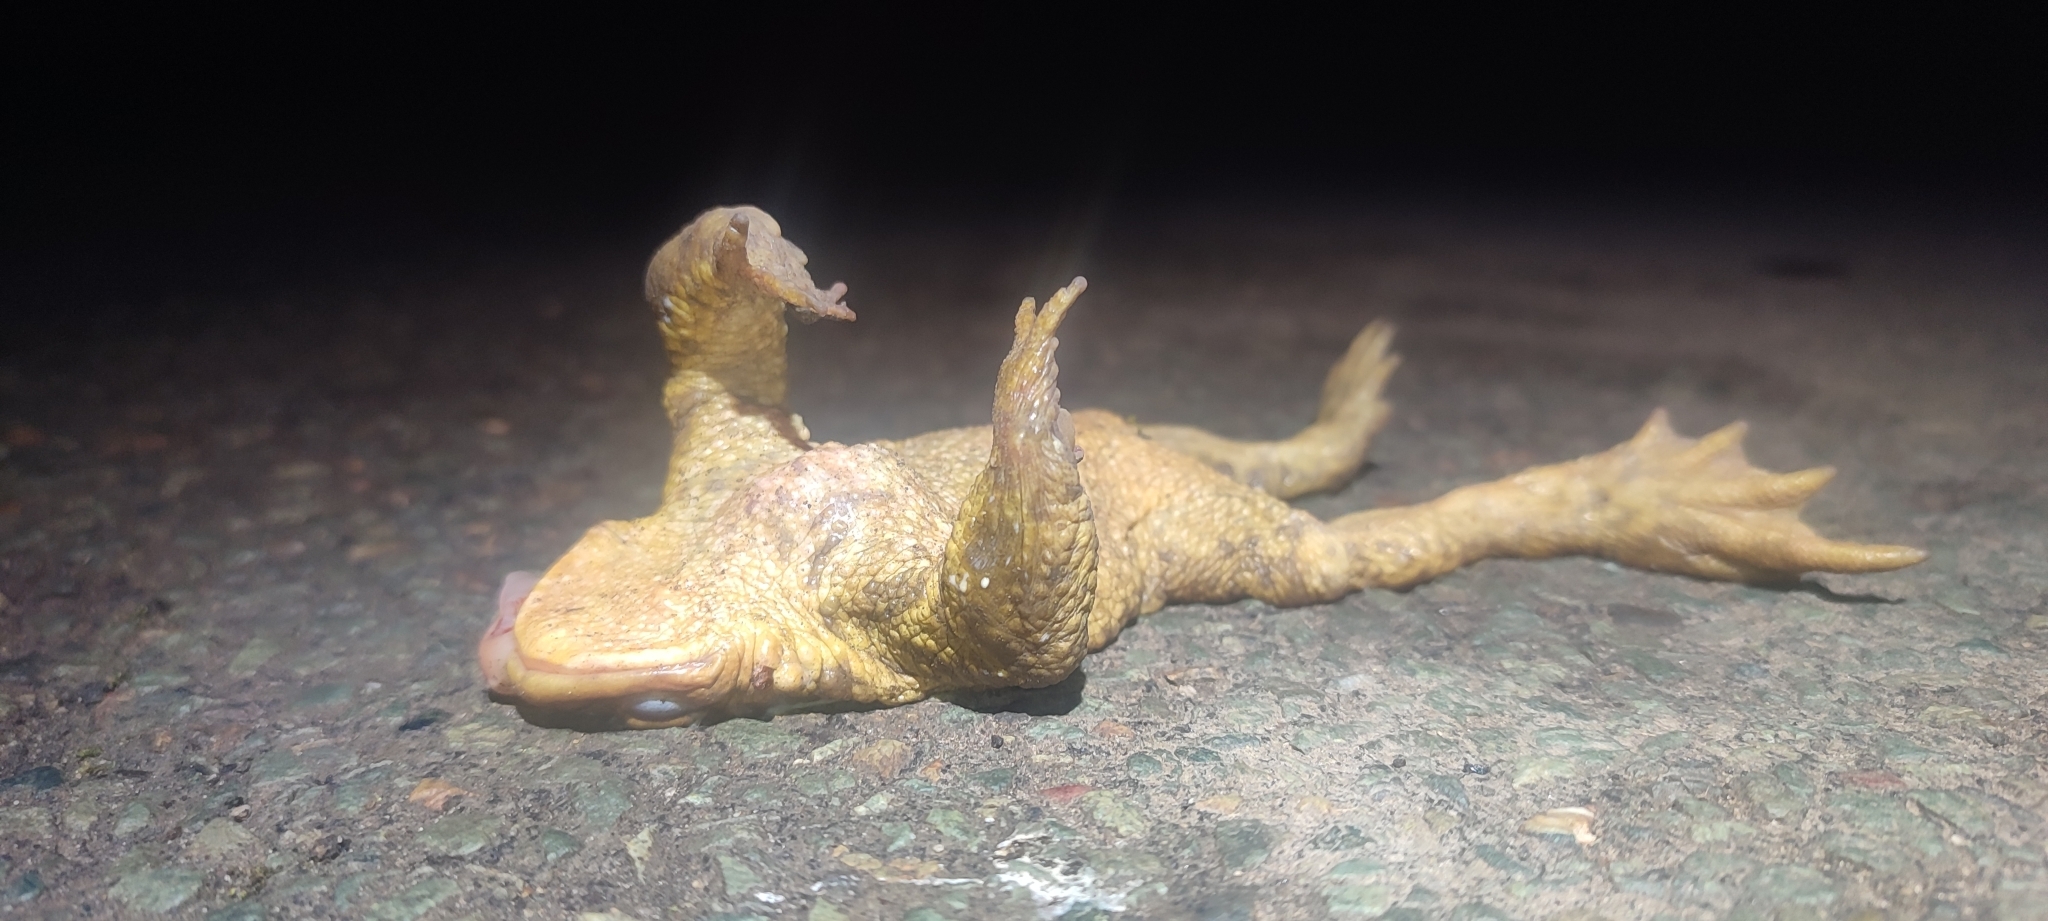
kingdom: Animalia
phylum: Chordata
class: Amphibia
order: Anura
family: Bufonidae
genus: Bufo
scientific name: Bufo spinosus
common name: Western common toad
